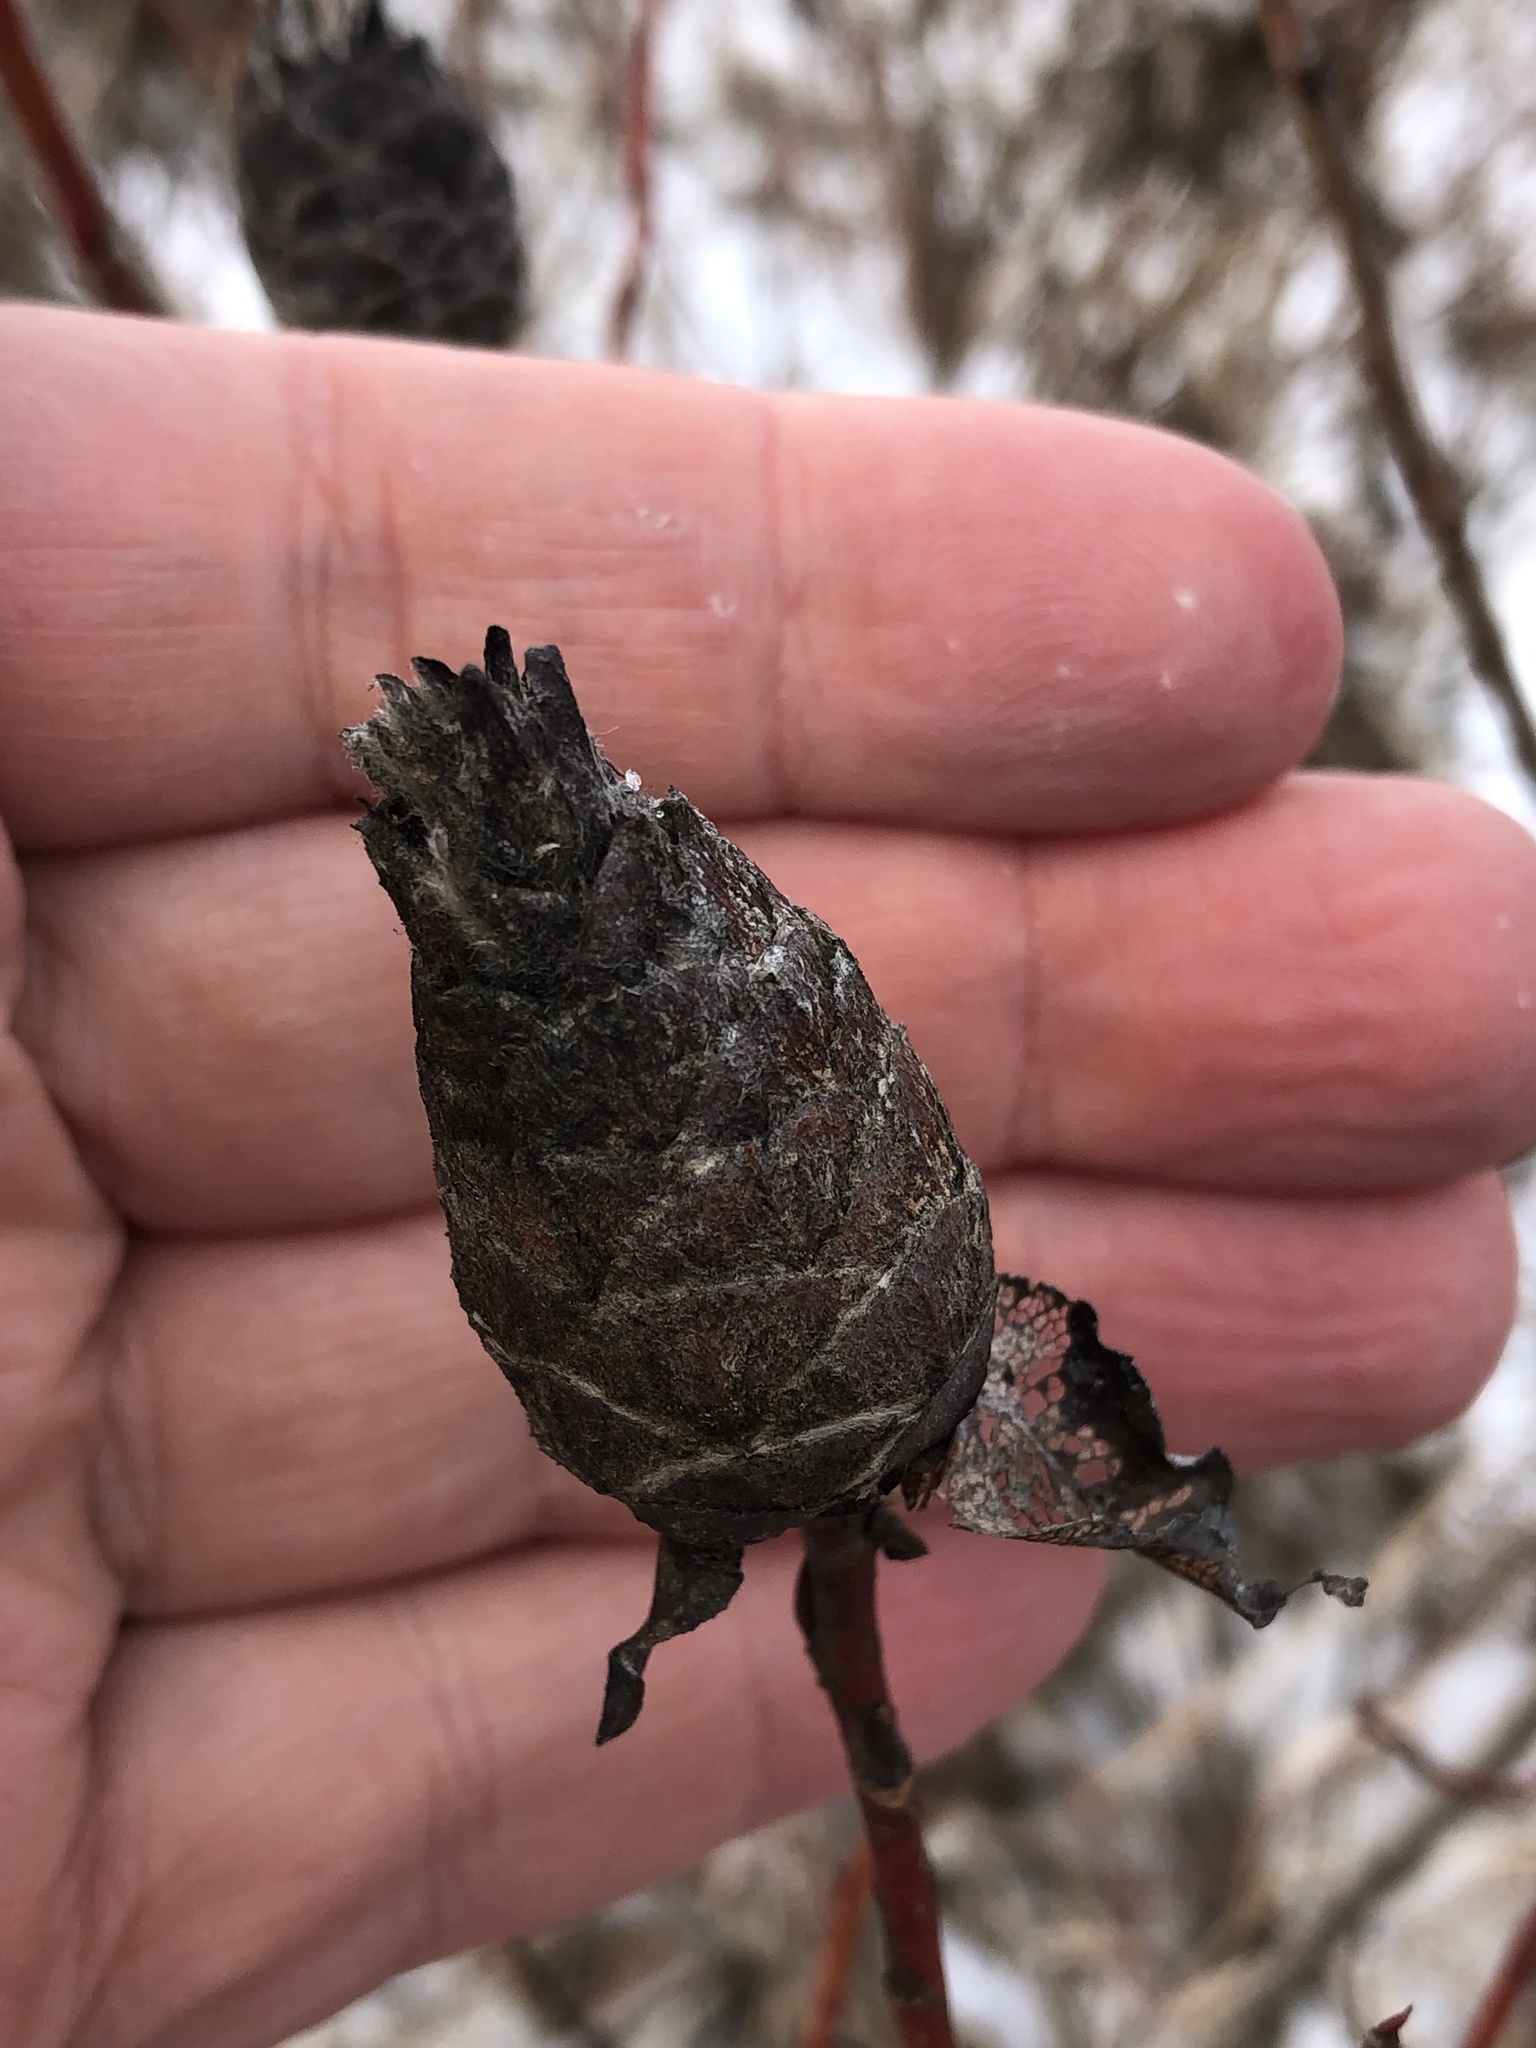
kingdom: Animalia
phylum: Arthropoda
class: Insecta
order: Diptera
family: Cecidomyiidae
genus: Rabdophaga
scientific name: Rabdophaga strobiloides
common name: Willow pinecone gall midge
